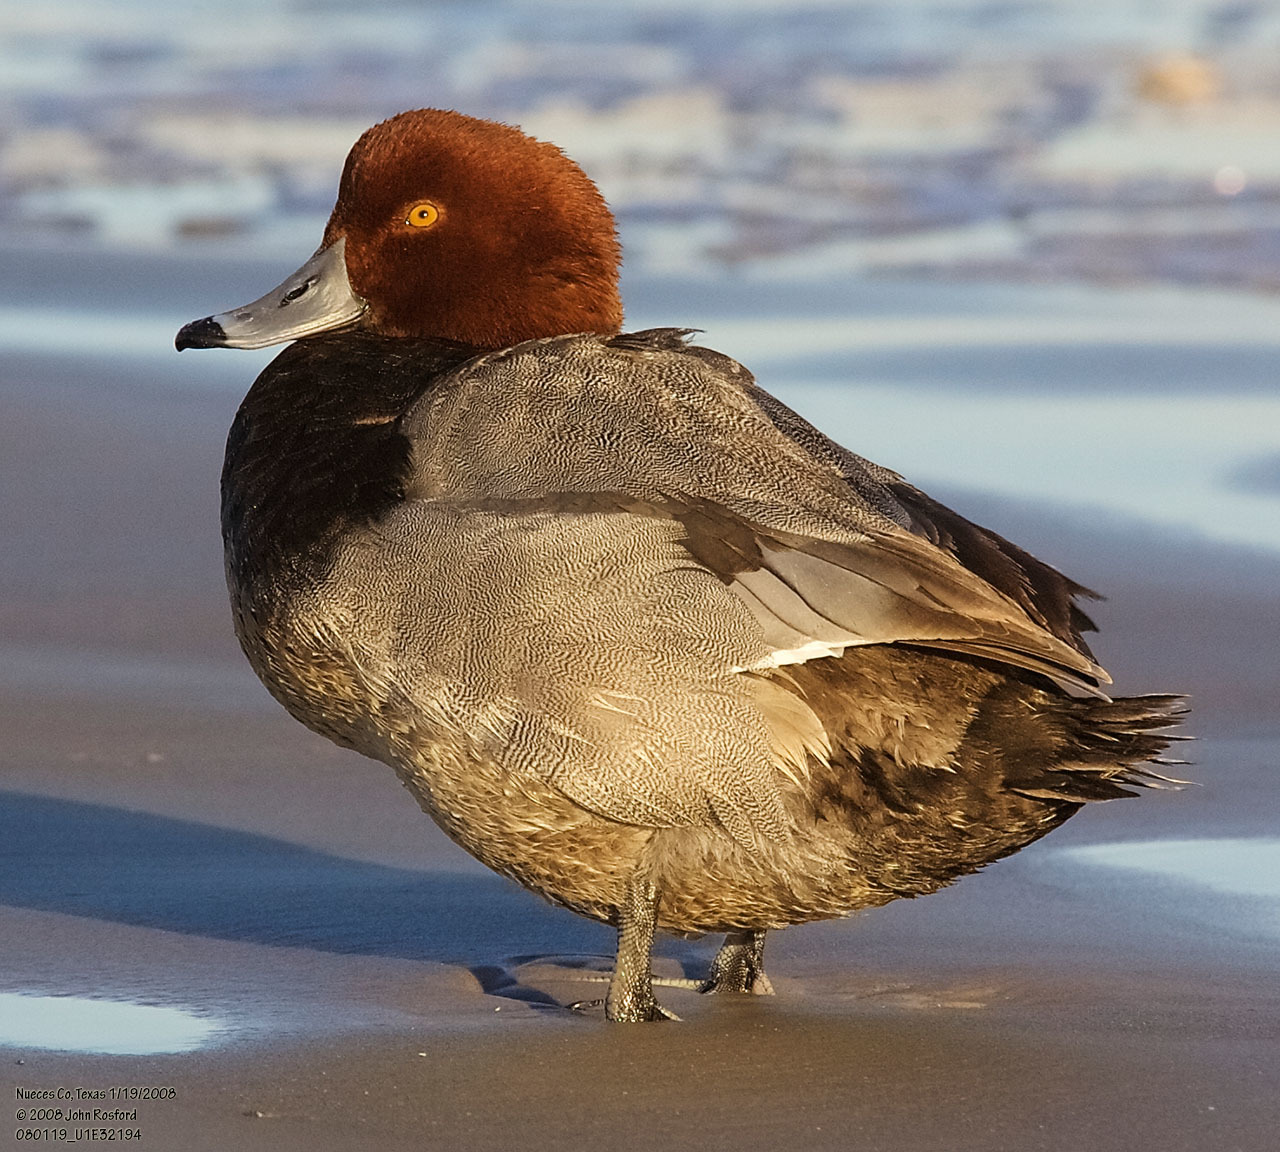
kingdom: Animalia
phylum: Chordata
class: Aves
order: Anseriformes
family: Anatidae
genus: Aythya
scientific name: Aythya americana
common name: Redhead
